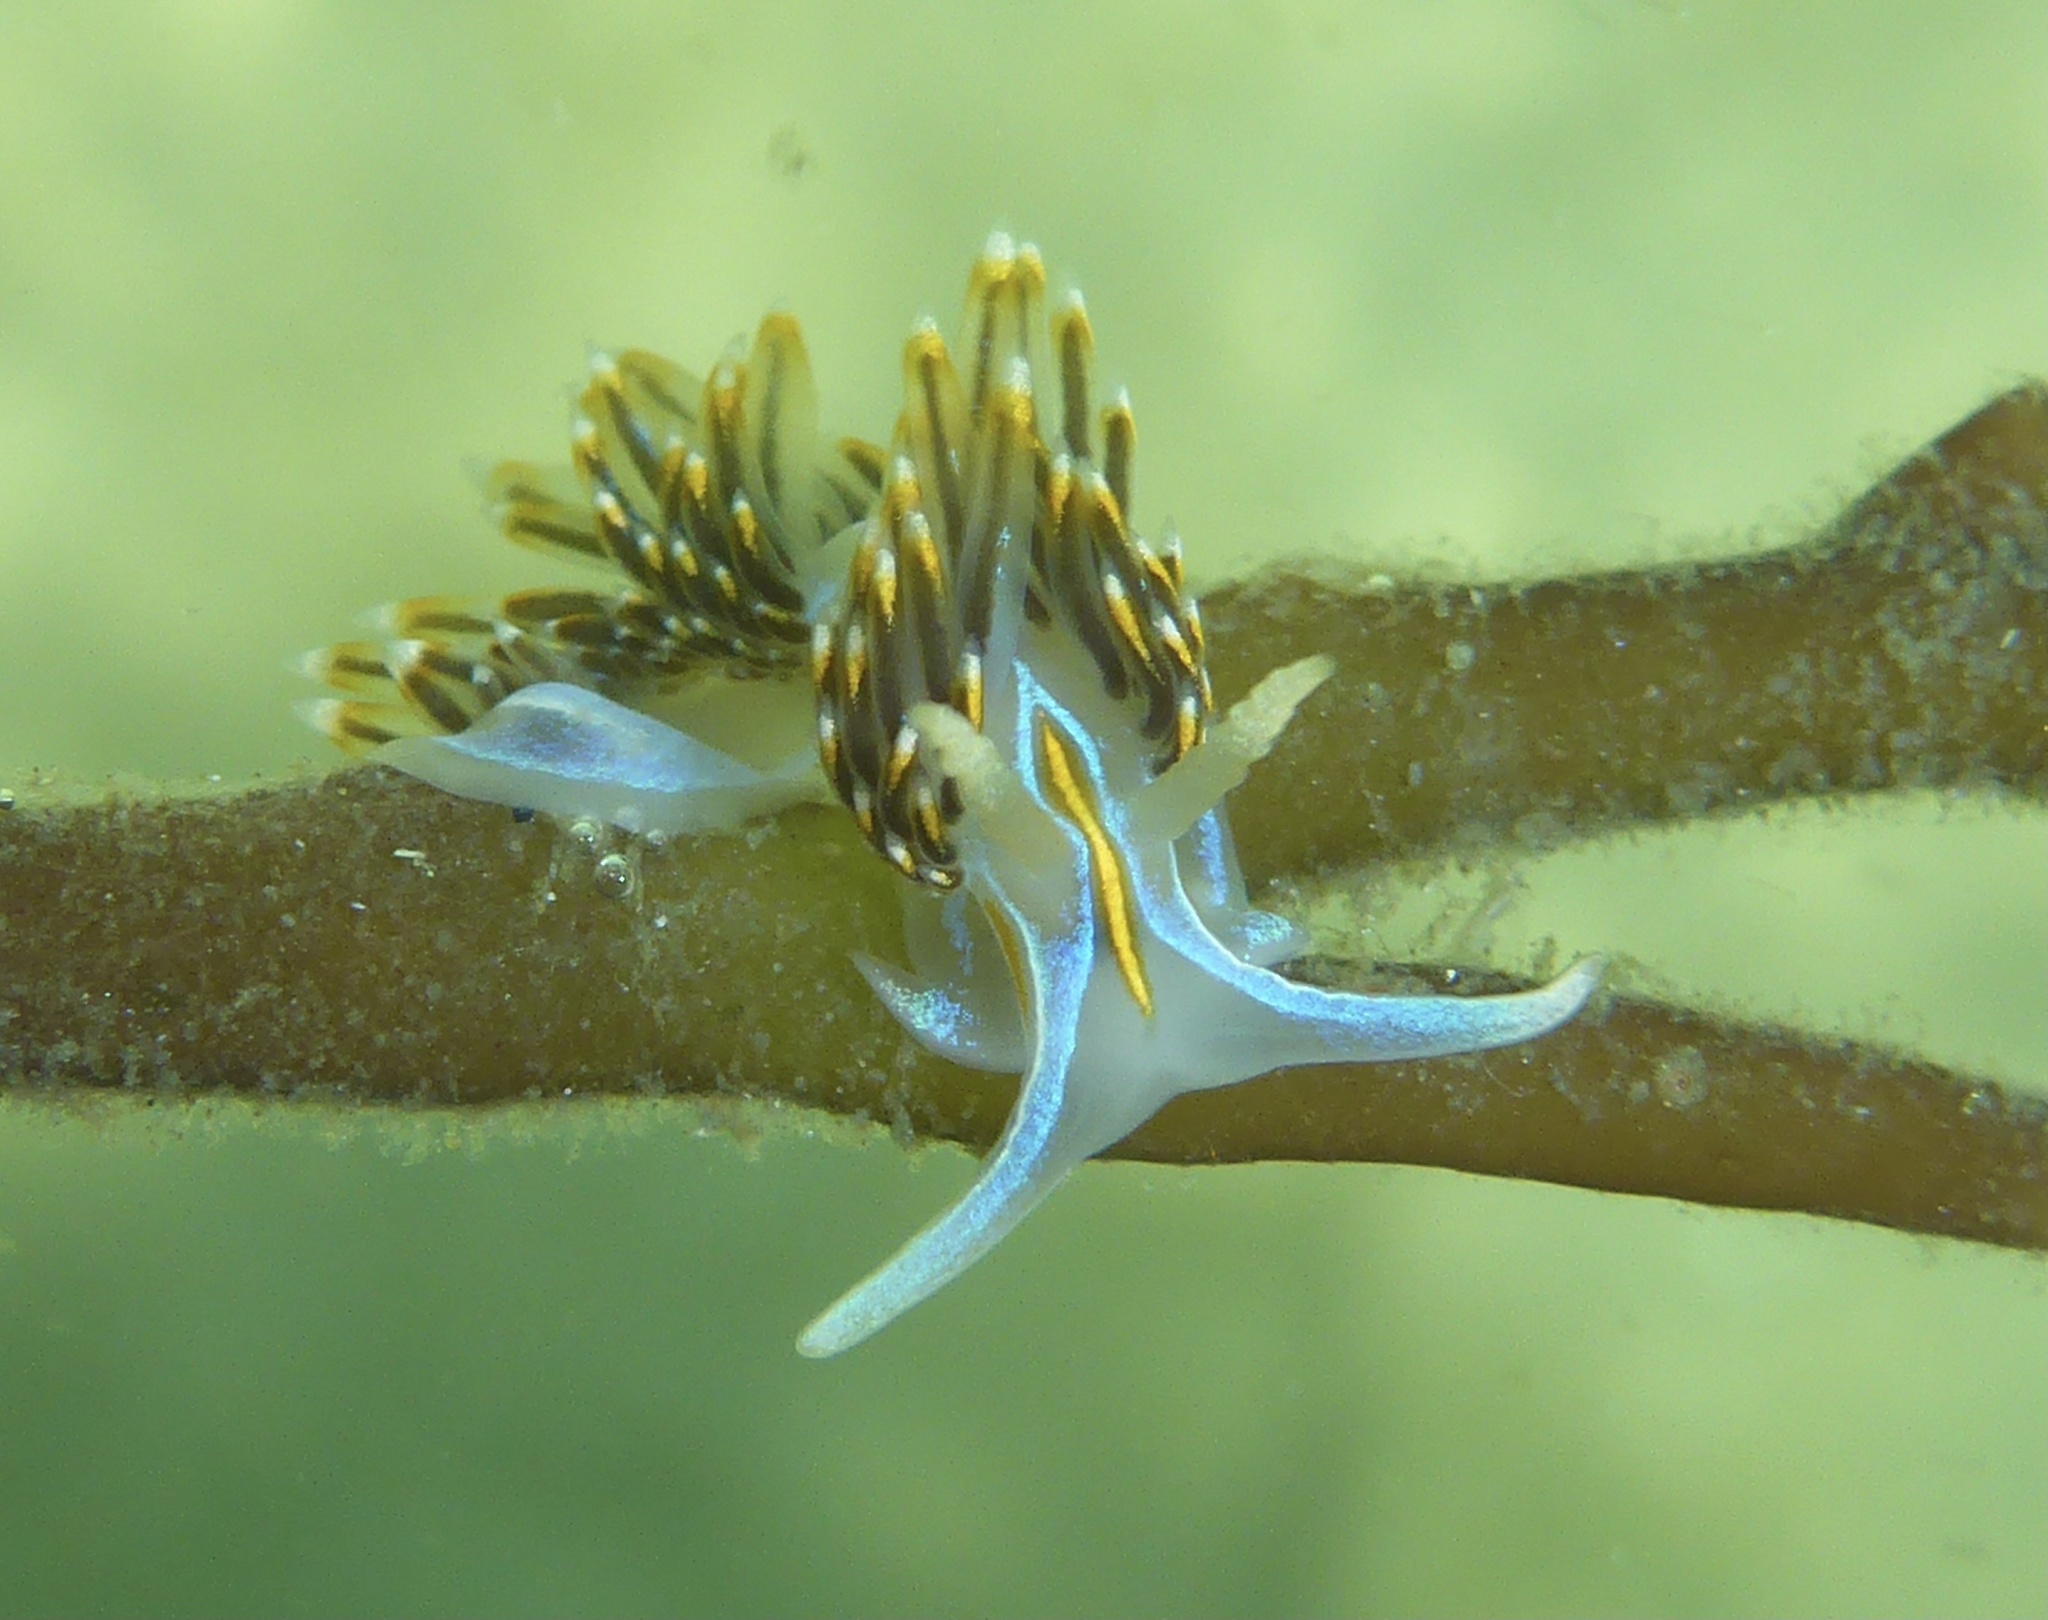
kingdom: Animalia
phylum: Mollusca
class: Gastropoda
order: Nudibranchia
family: Myrrhinidae
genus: Hermissenda
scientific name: Hermissenda opalescens
